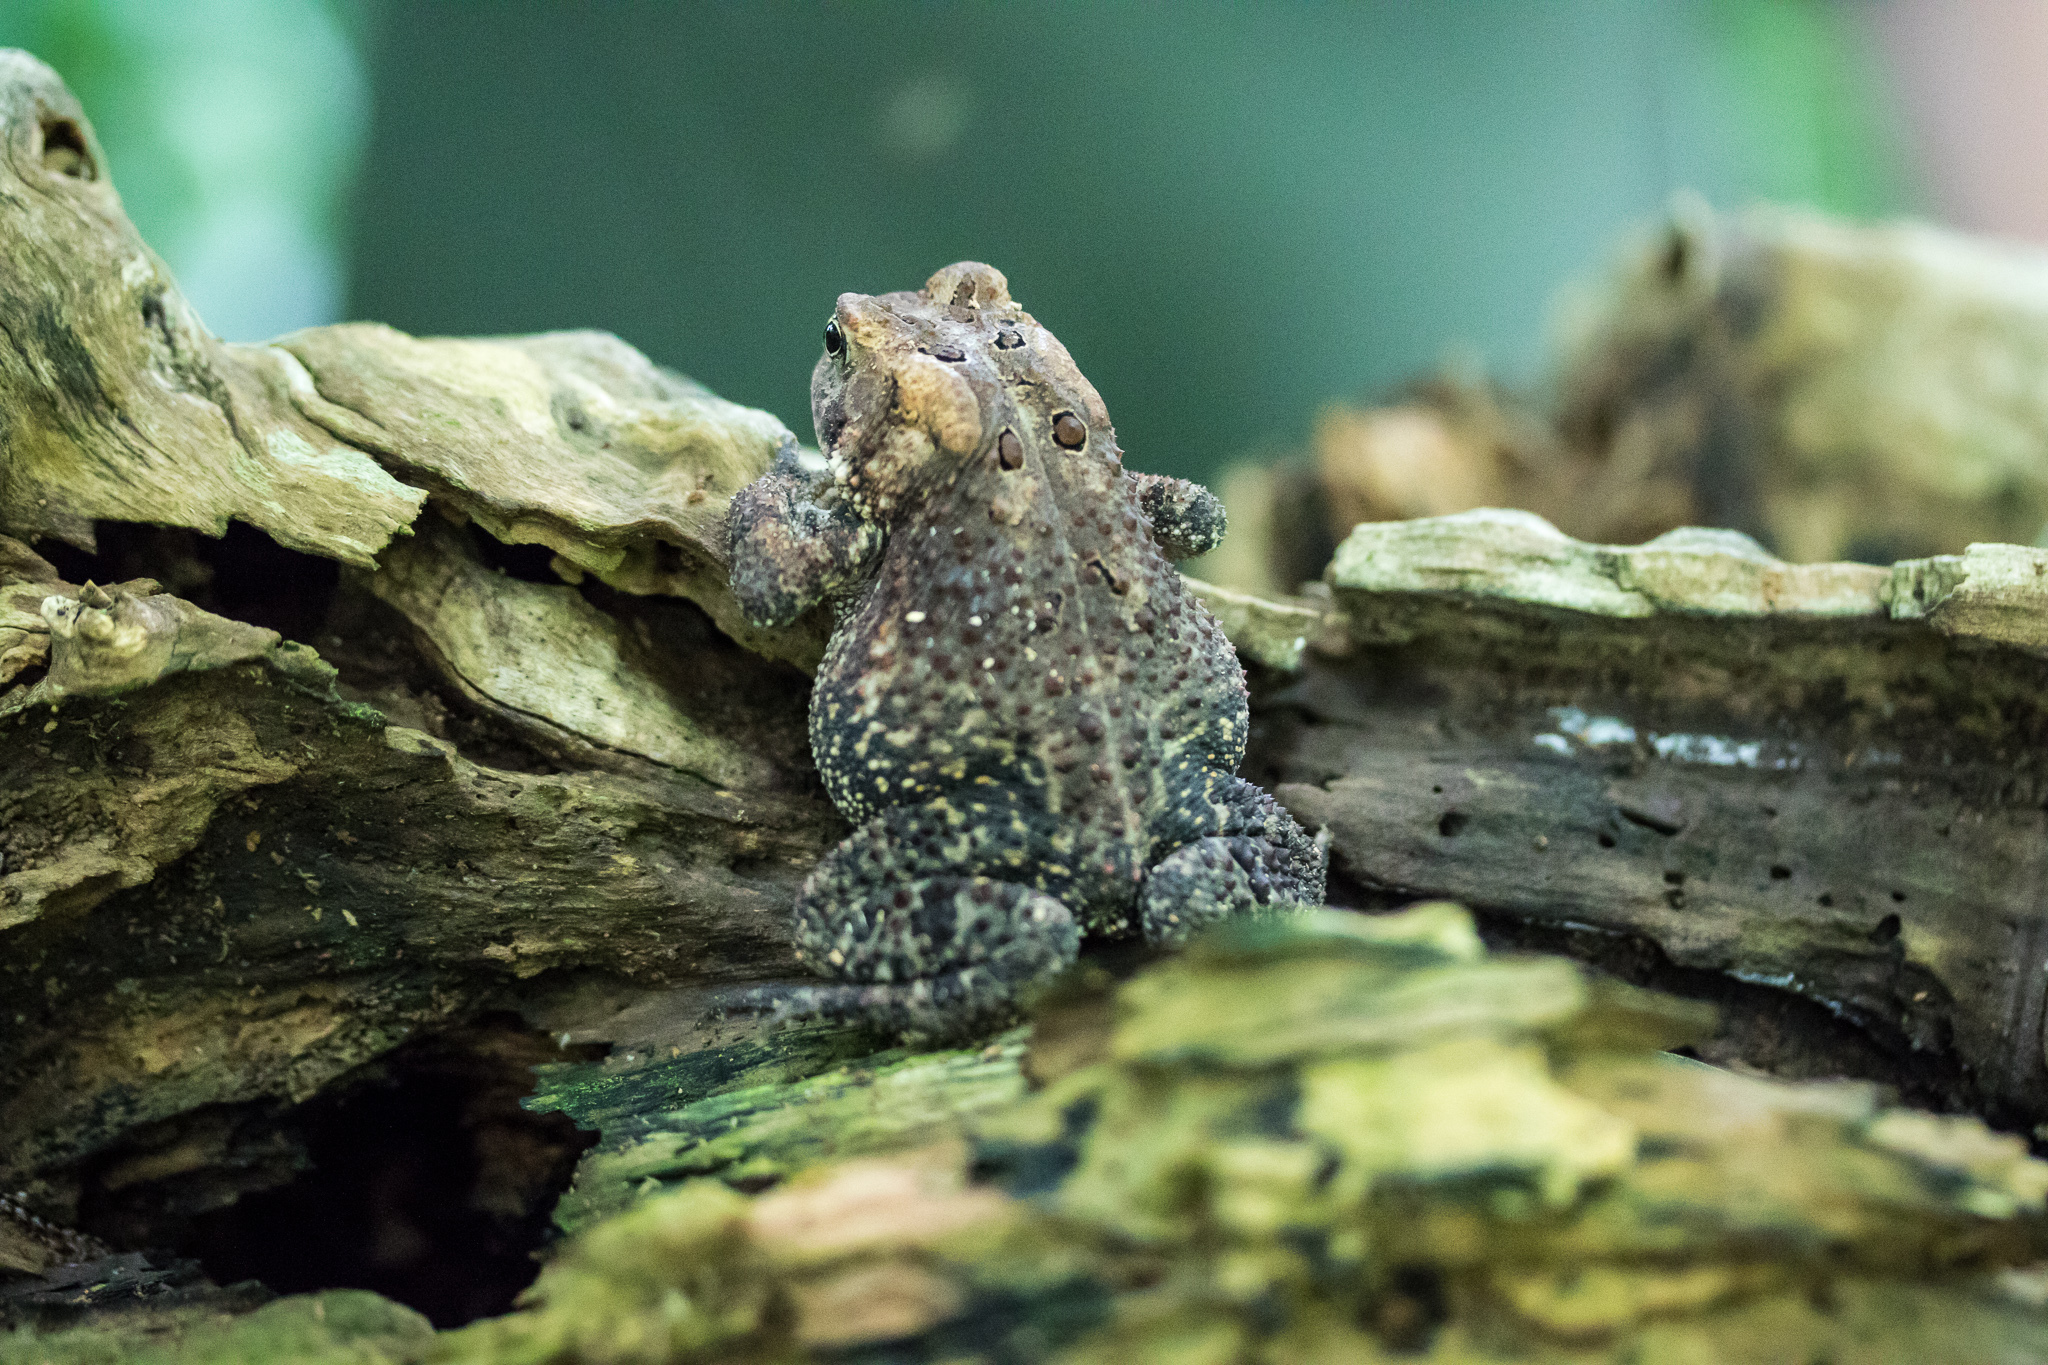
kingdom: Animalia
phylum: Chordata
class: Amphibia
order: Anura
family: Bufonidae
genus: Anaxyrus
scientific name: Anaxyrus americanus
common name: American toad
